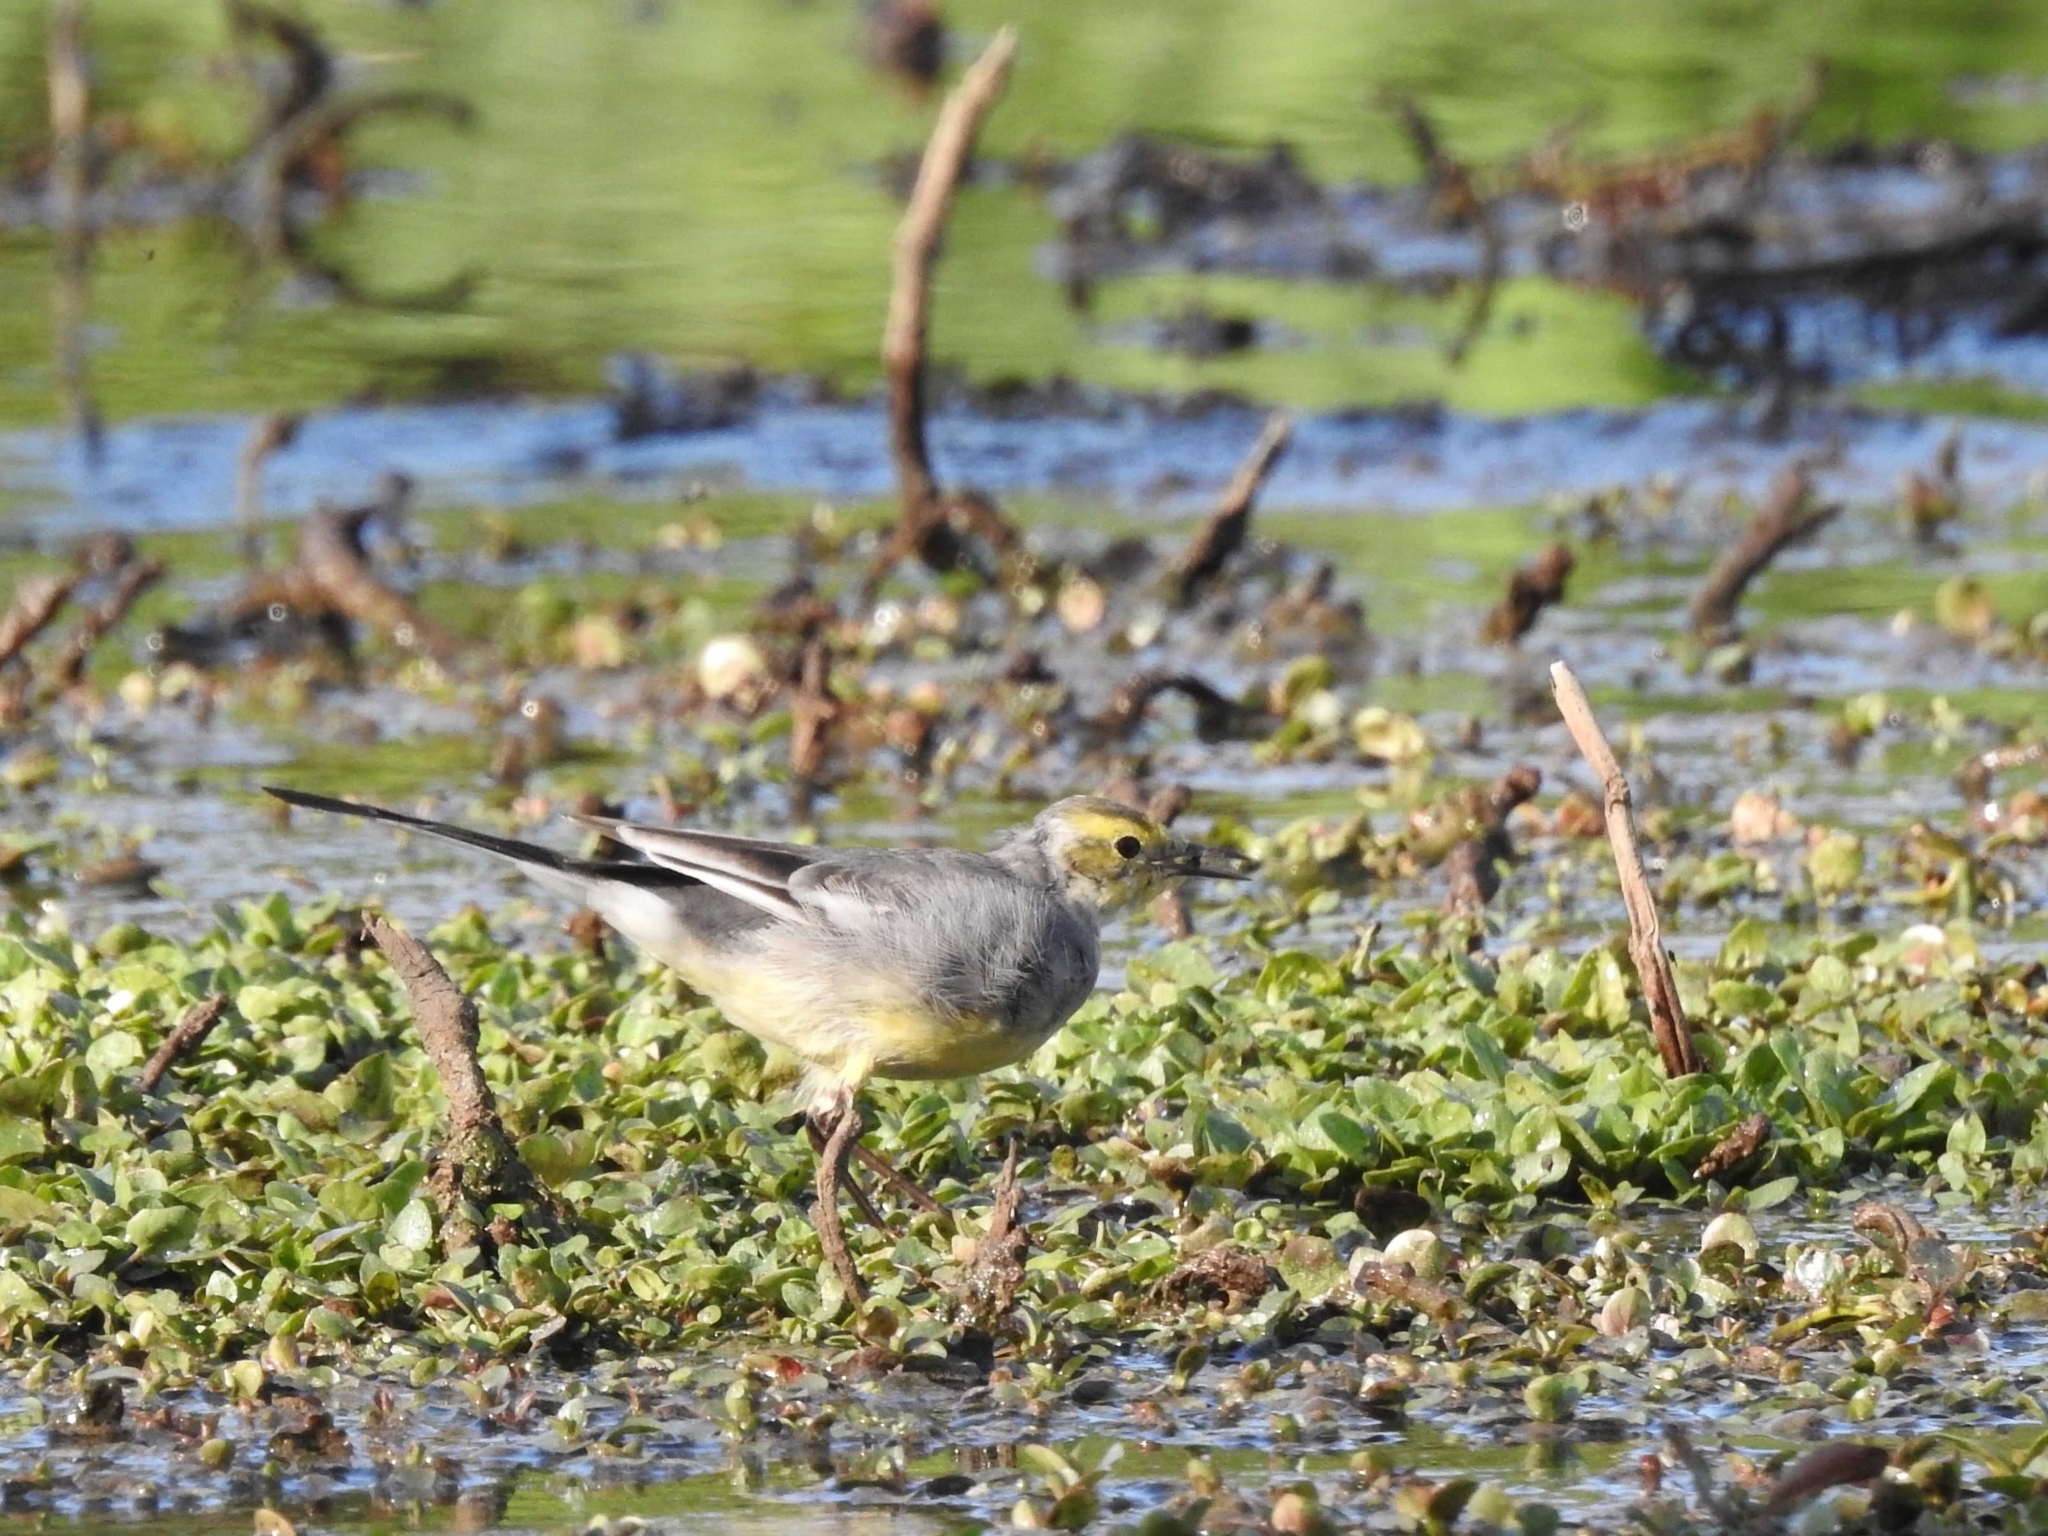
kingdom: Animalia
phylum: Chordata
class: Aves
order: Passeriformes
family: Motacillidae
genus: Motacilla
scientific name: Motacilla citreola
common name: Citrine wagtail
